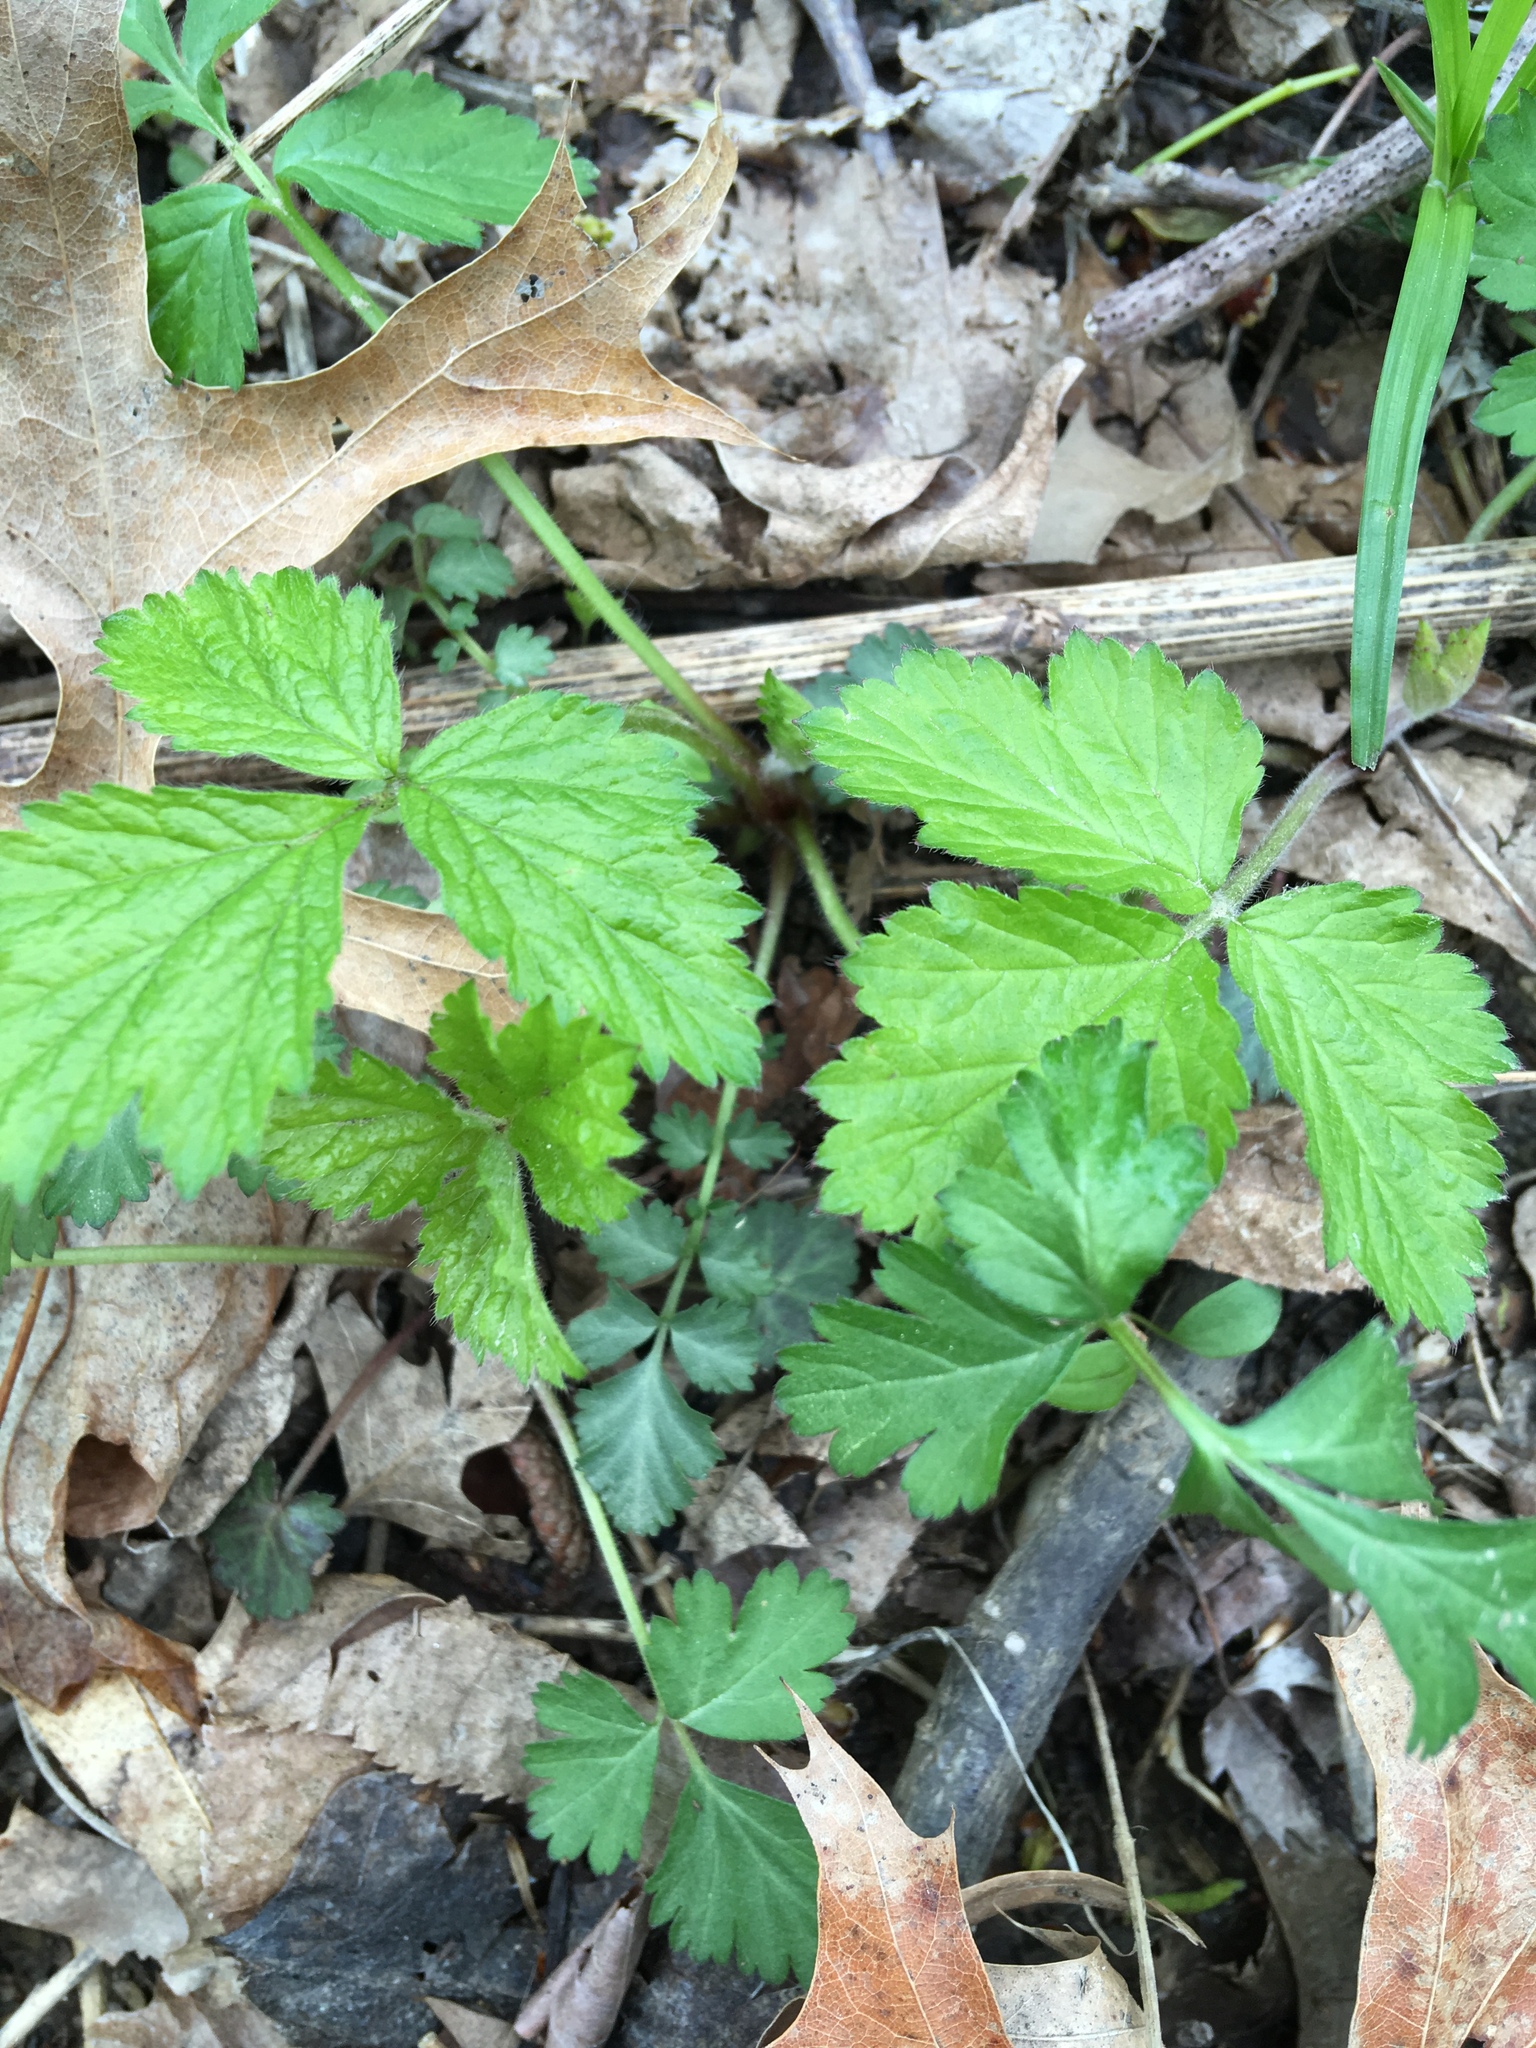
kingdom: Plantae
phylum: Tracheophyta
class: Magnoliopsida
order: Rosales
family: Rosaceae
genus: Geum
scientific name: Geum canadense
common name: White avens
